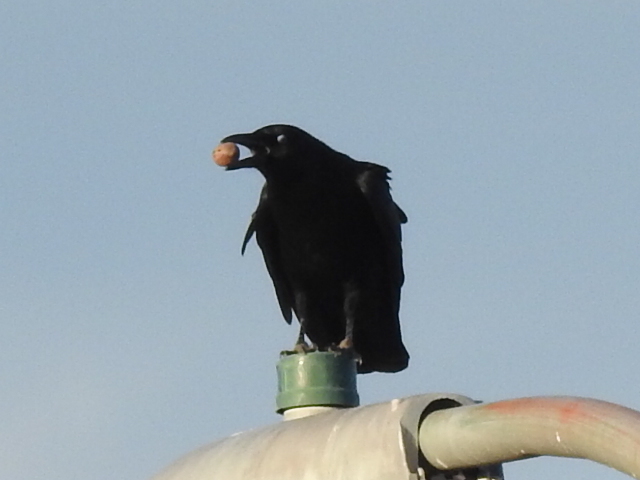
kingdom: Animalia
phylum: Chordata
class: Aves
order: Passeriformes
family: Corvidae
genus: Corvus
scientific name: Corvus brachyrhynchos
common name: American crow
